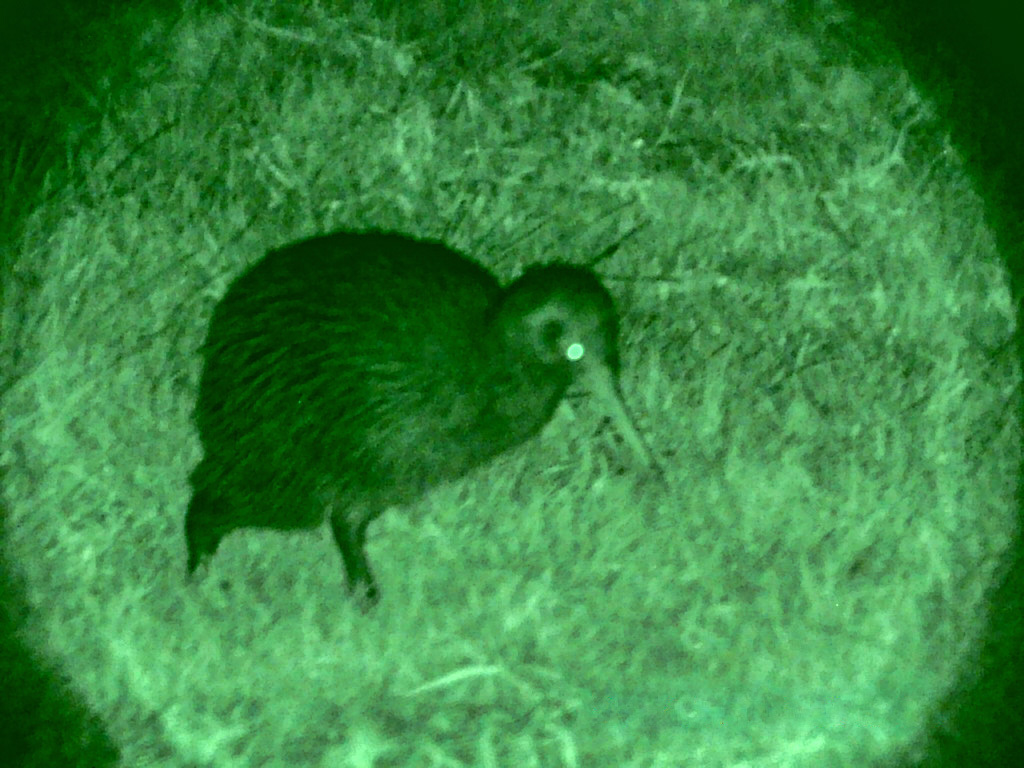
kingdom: Animalia
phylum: Chordata
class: Aves
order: Apterygiformes
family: Apterygidae
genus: Apteryx
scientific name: Apteryx mantelli
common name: North island brown kiwi
